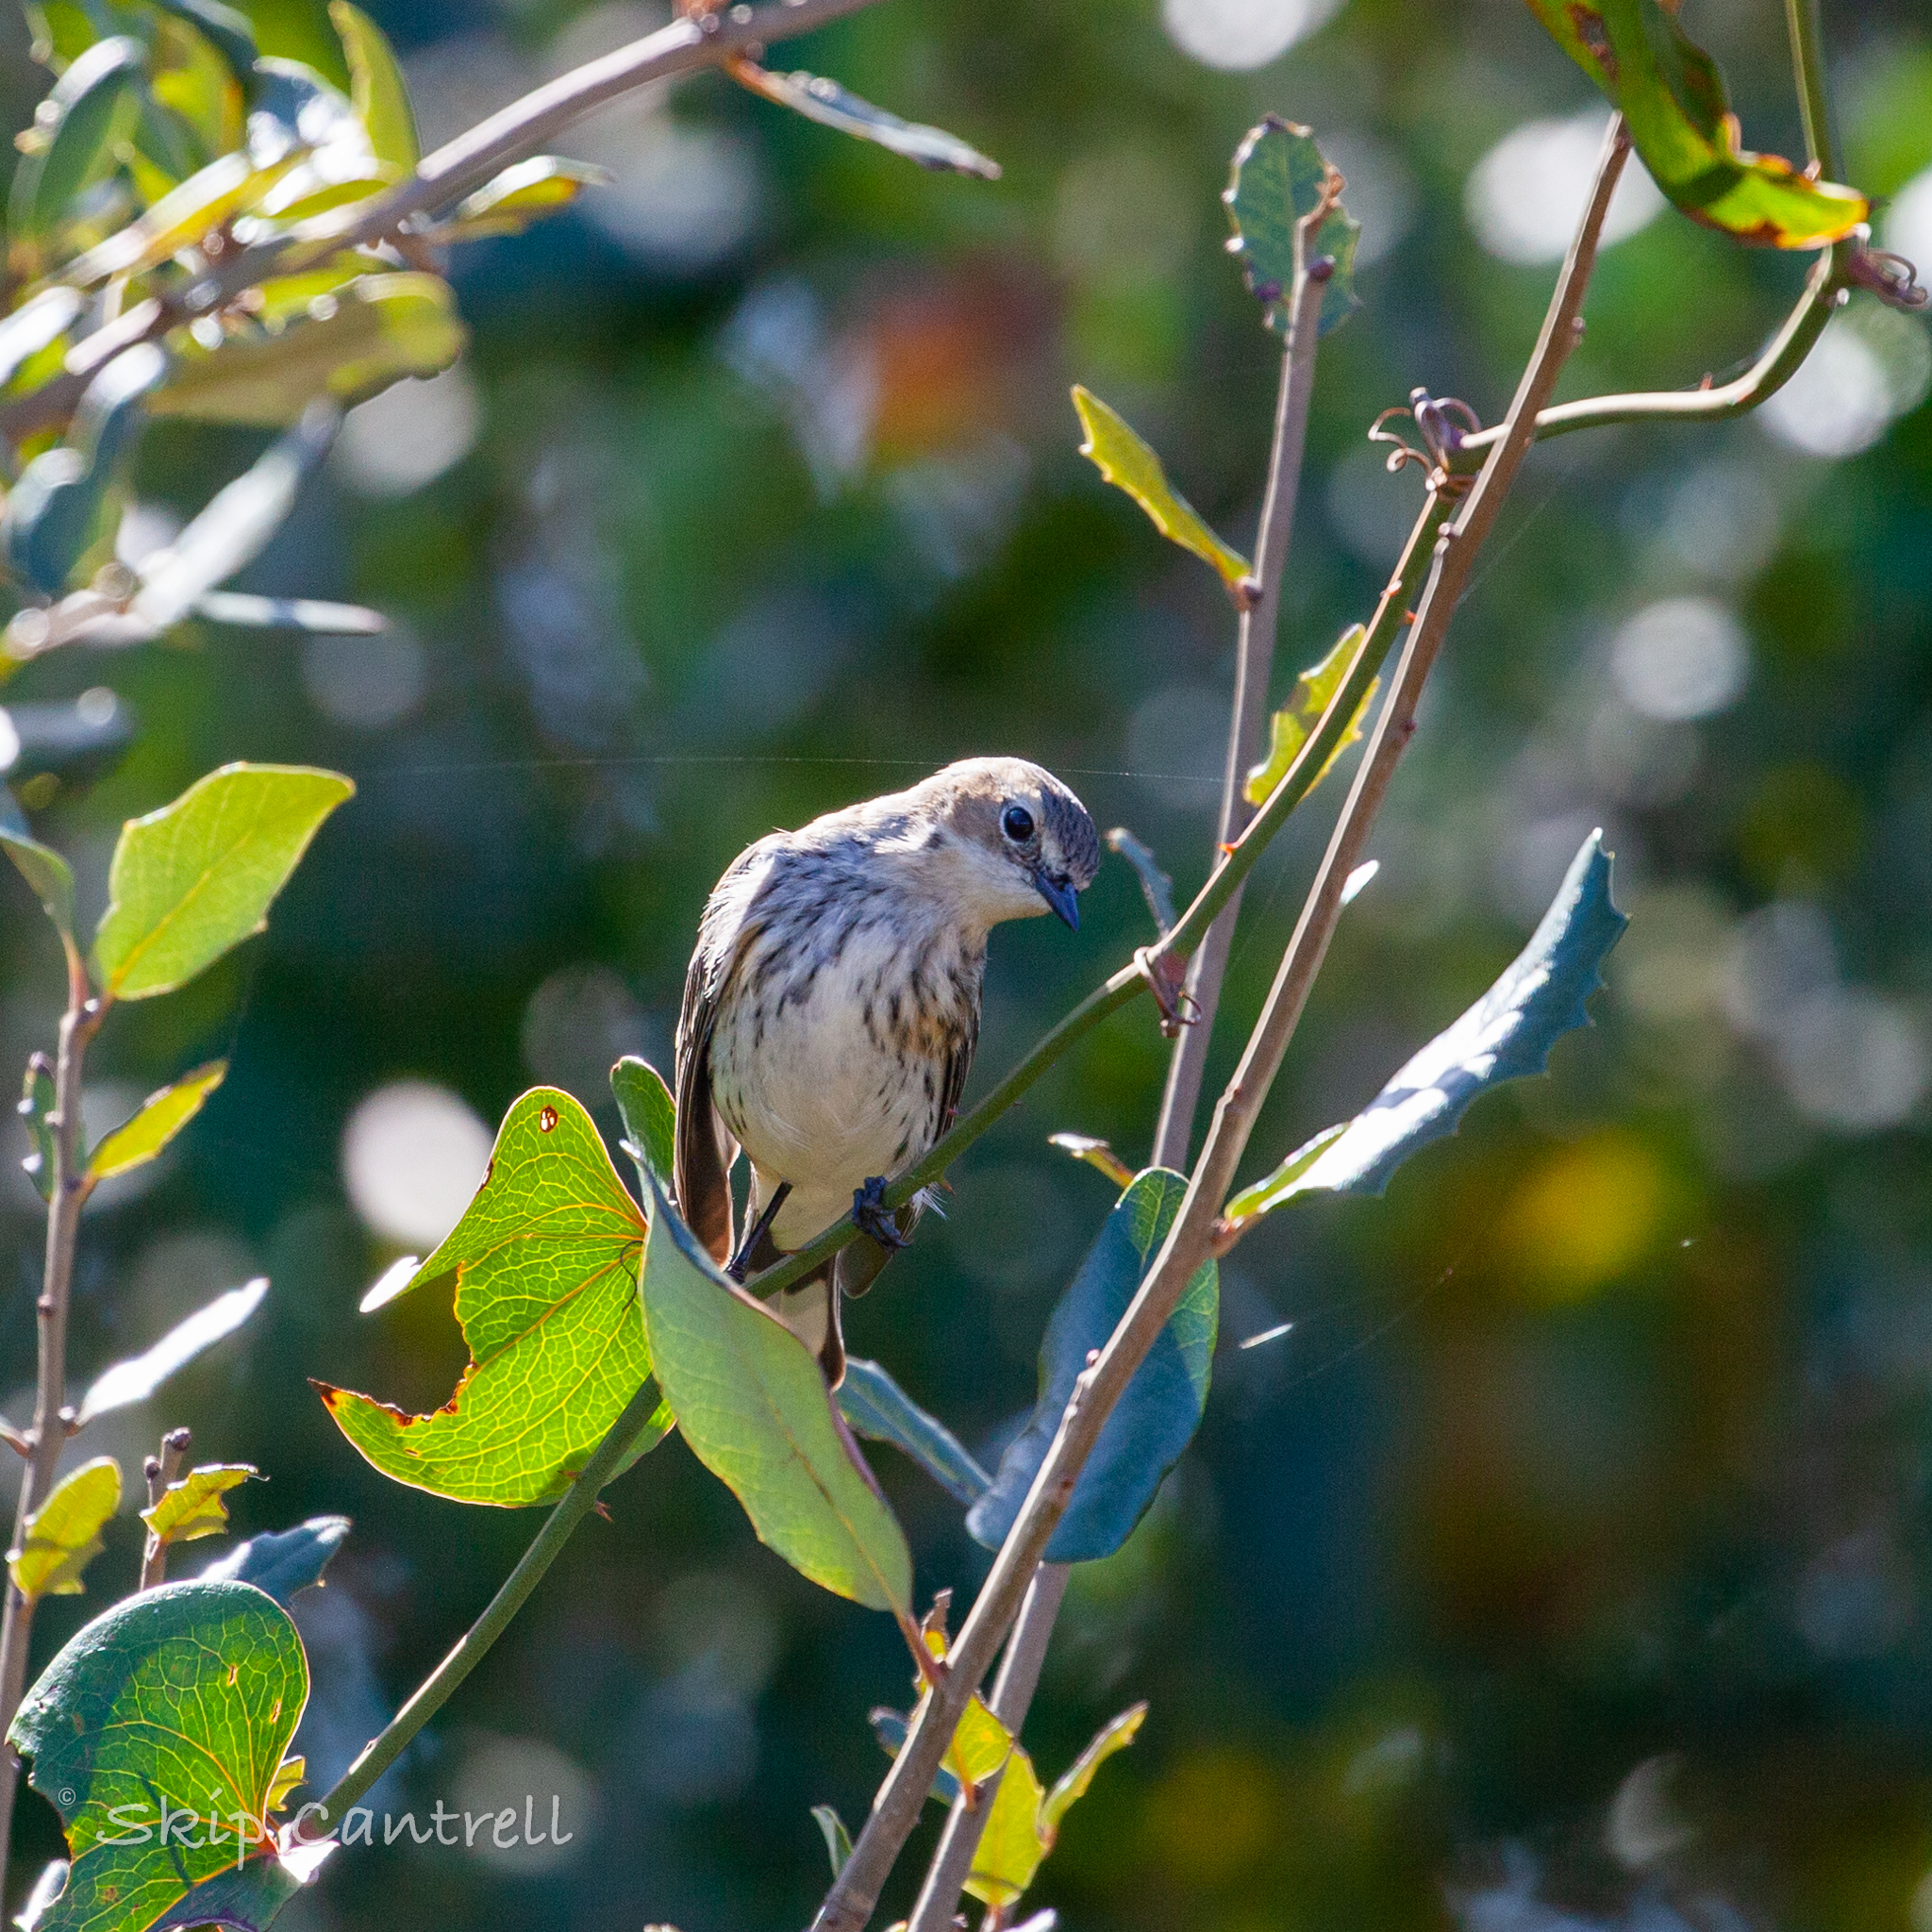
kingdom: Animalia
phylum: Chordata
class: Aves
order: Passeriformes
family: Parulidae
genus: Setophaga
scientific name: Setophaga coronata
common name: Myrtle warbler
